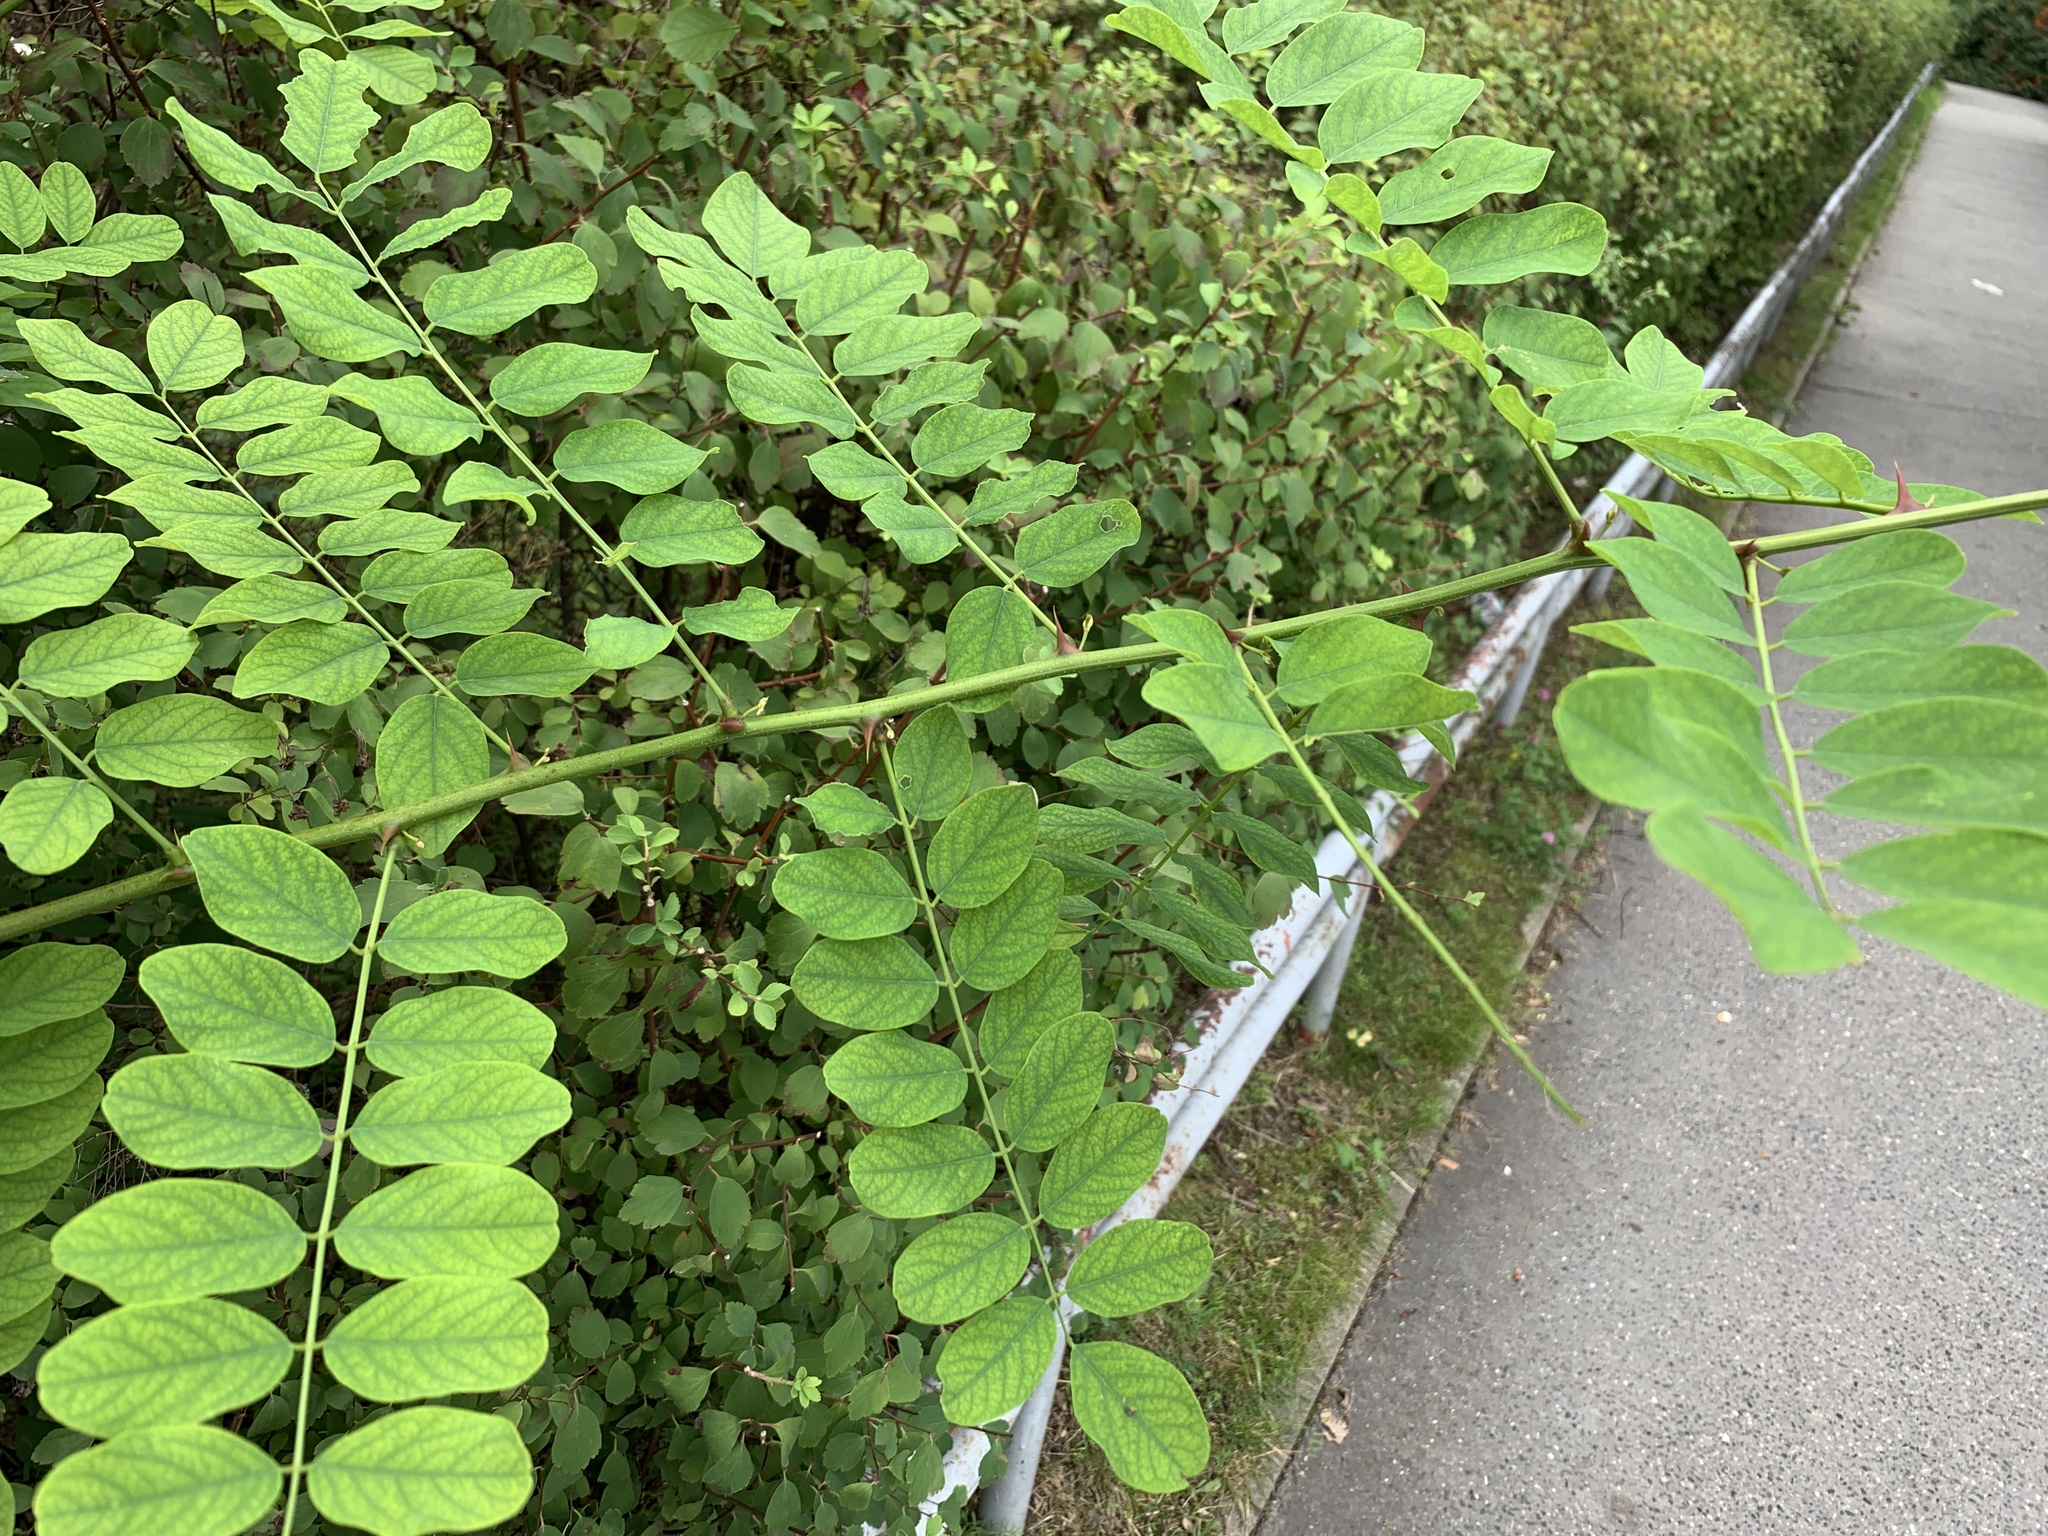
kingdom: Plantae
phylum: Tracheophyta
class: Magnoliopsida
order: Fabales
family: Fabaceae
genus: Robinia
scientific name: Robinia pseudoacacia
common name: Black locust
